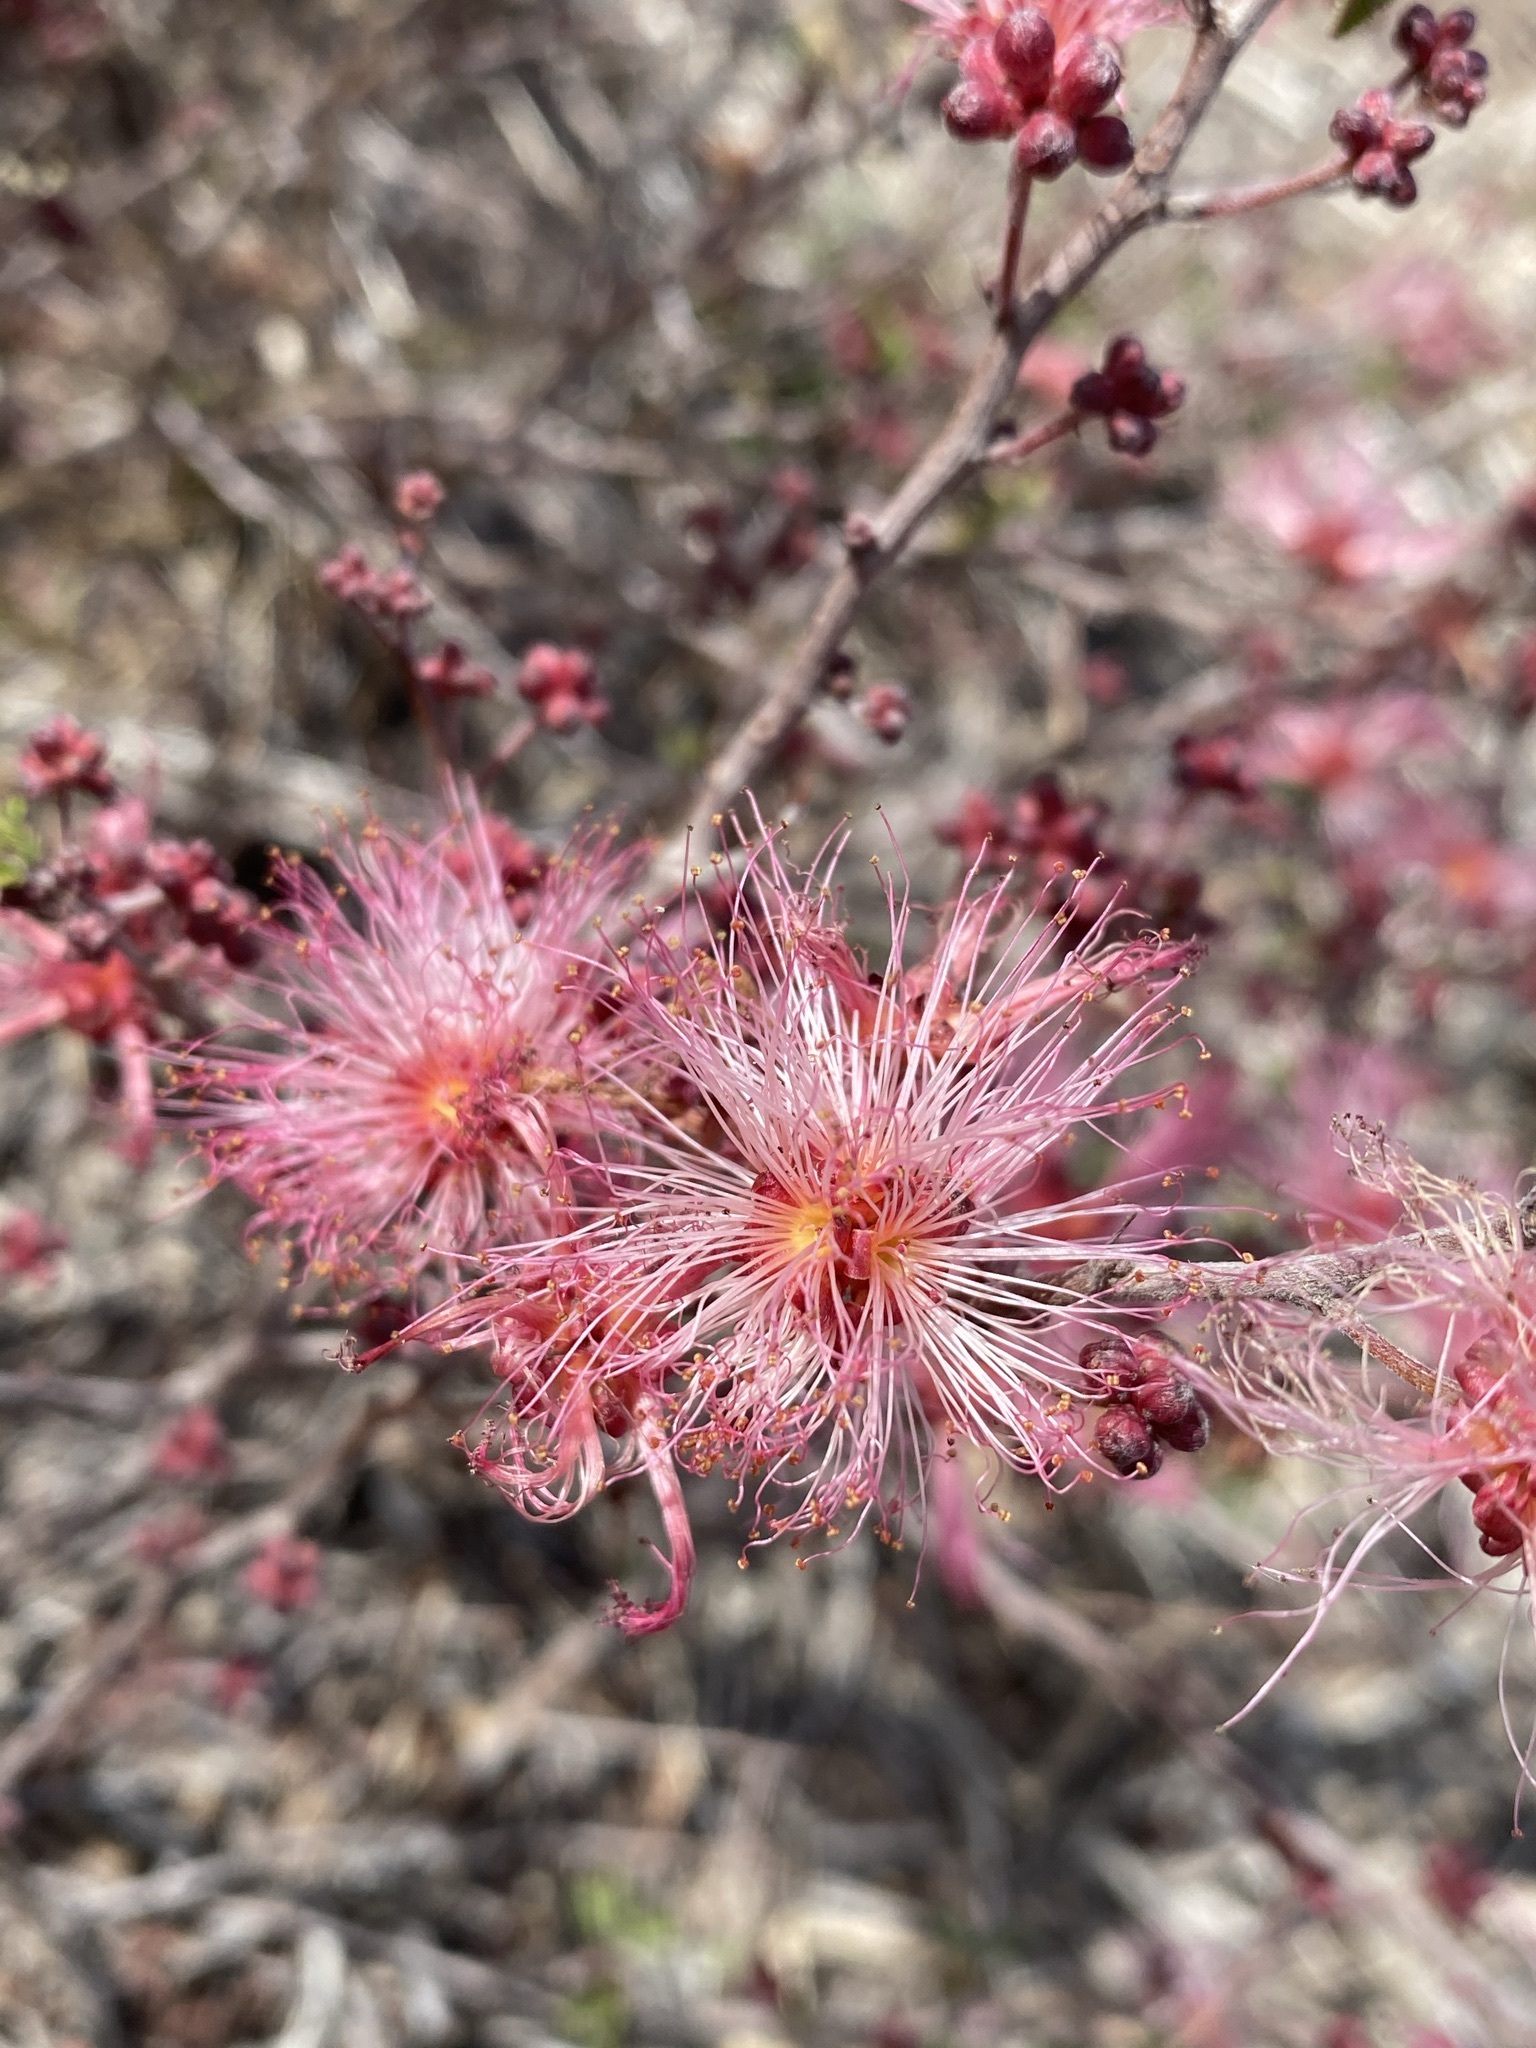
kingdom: Plantae
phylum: Tracheophyta
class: Magnoliopsida
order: Fabales
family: Fabaceae
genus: Calliandra
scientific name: Calliandra eriophylla
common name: Fairy-duster
